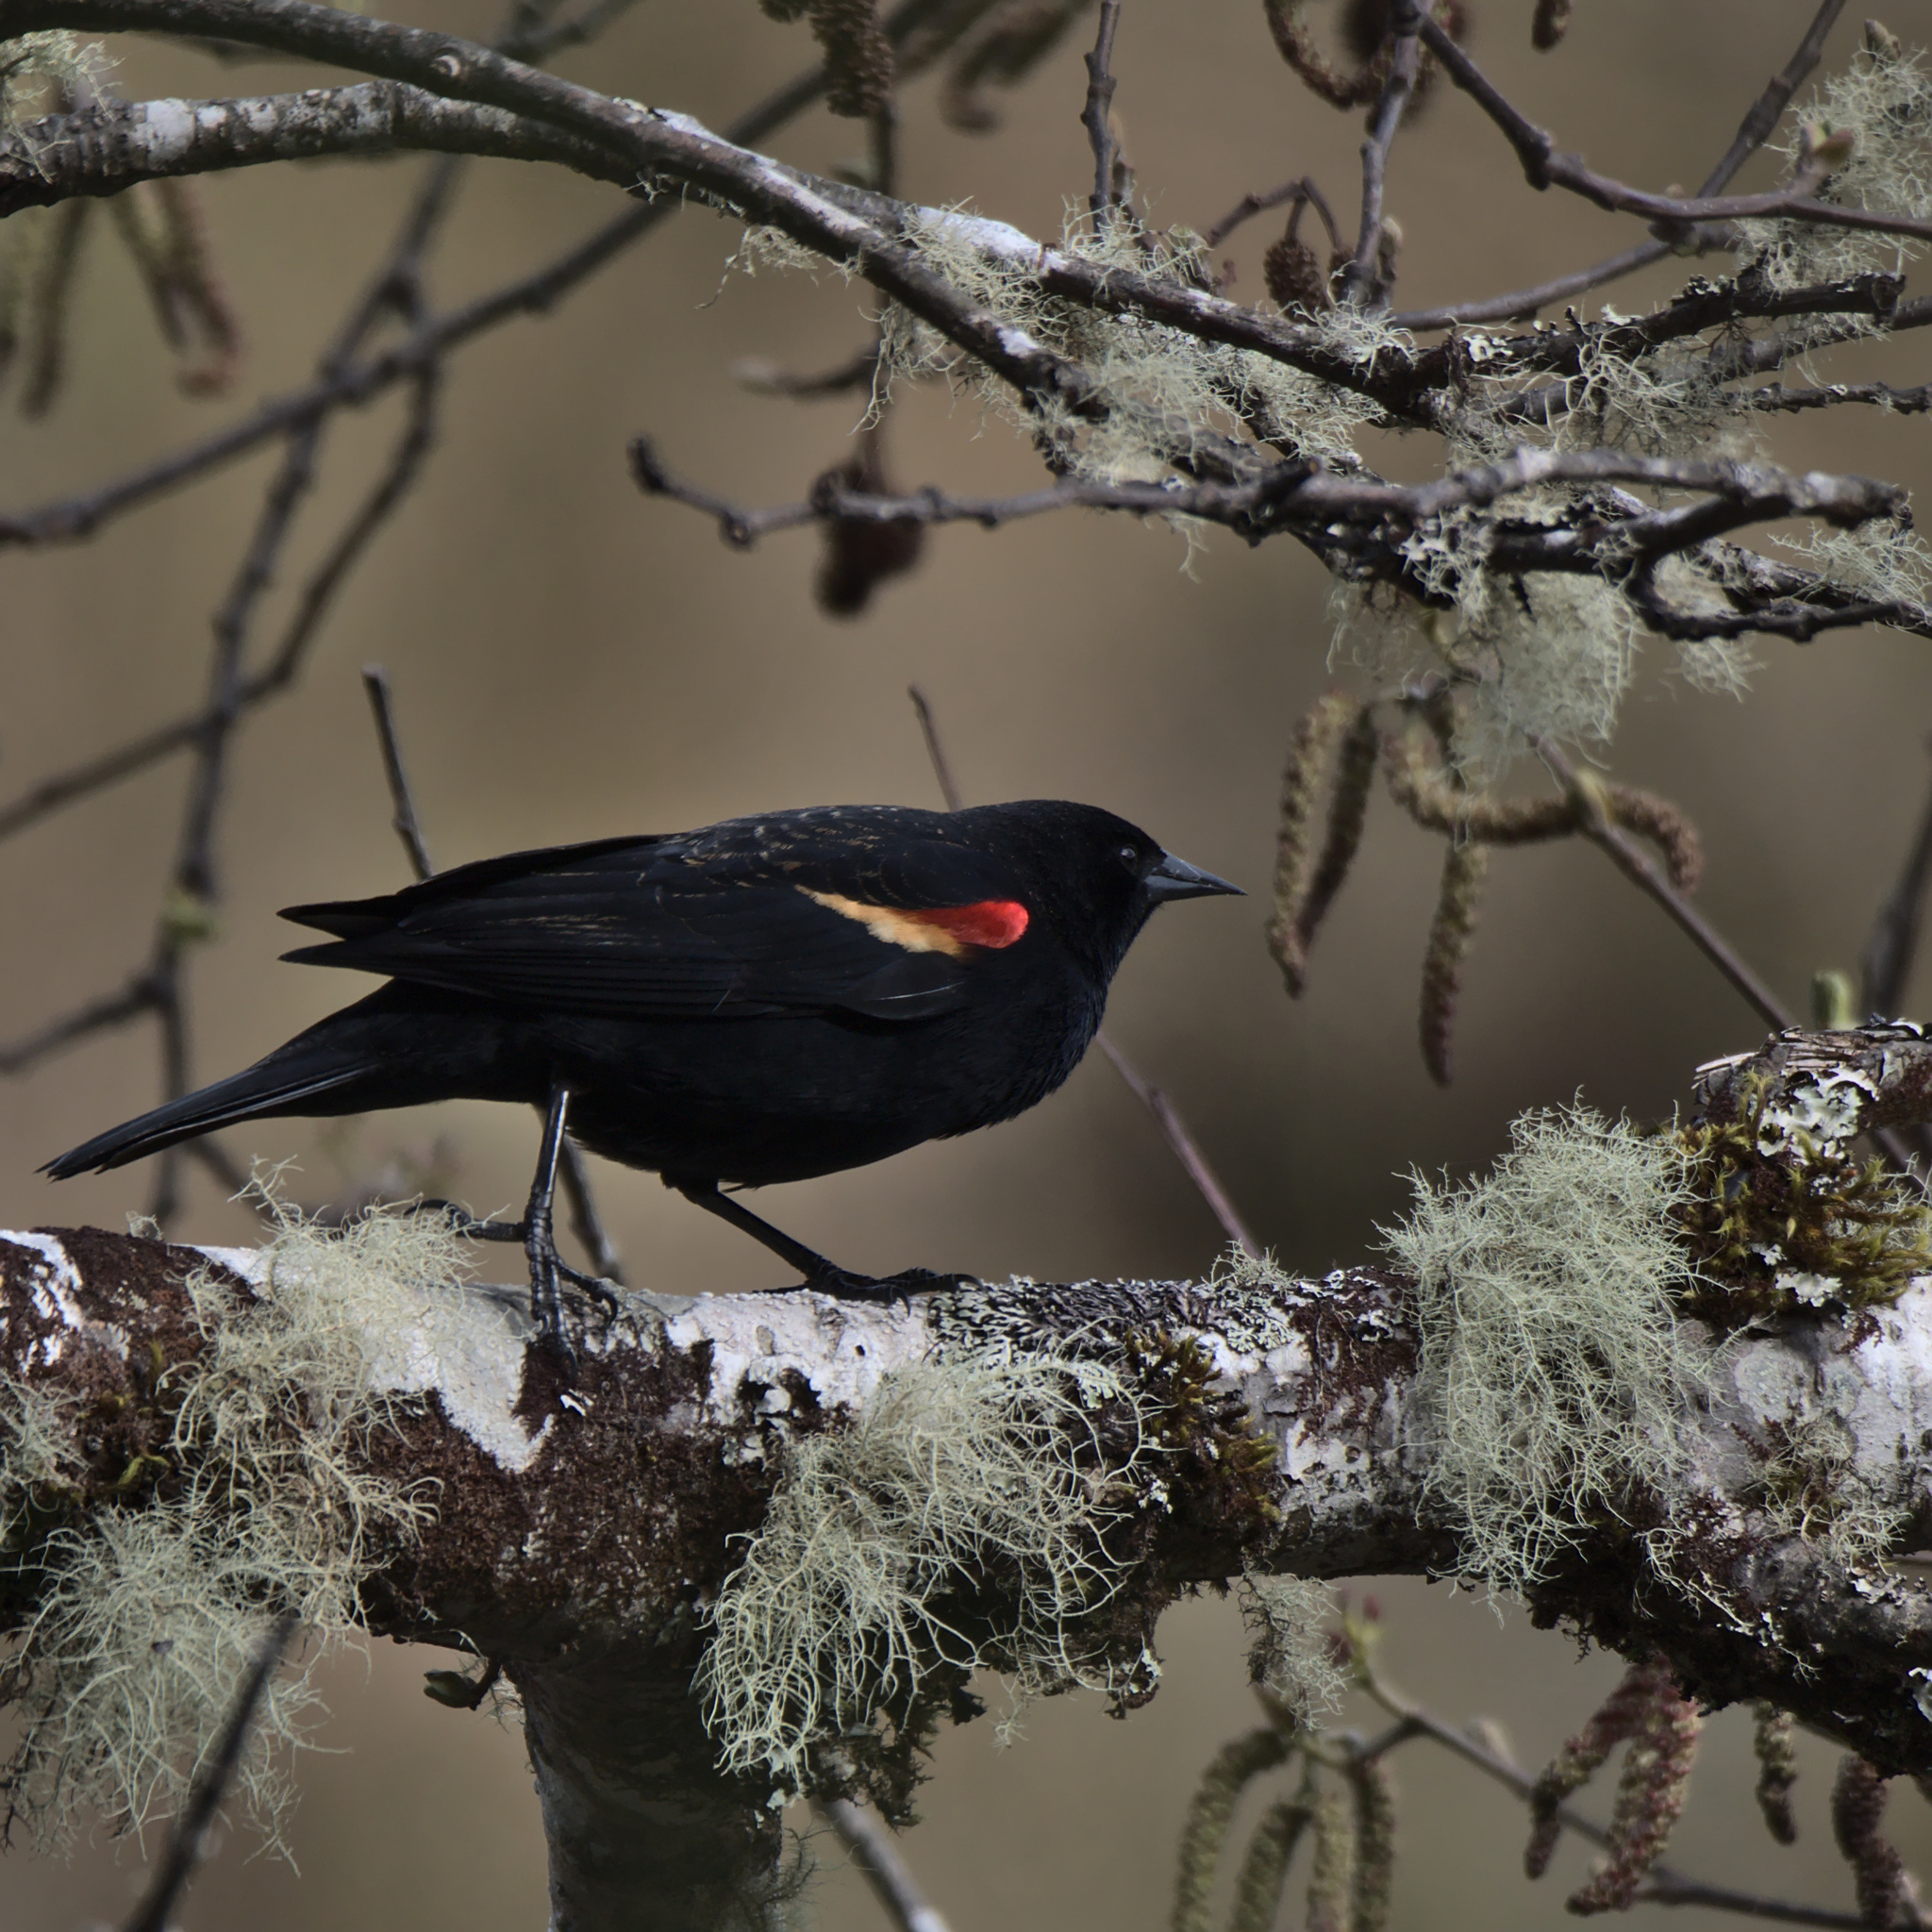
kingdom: Animalia
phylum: Chordata
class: Aves
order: Passeriformes
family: Icteridae
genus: Agelaius
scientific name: Agelaius phoeniceus
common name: Red-winged blackbird
